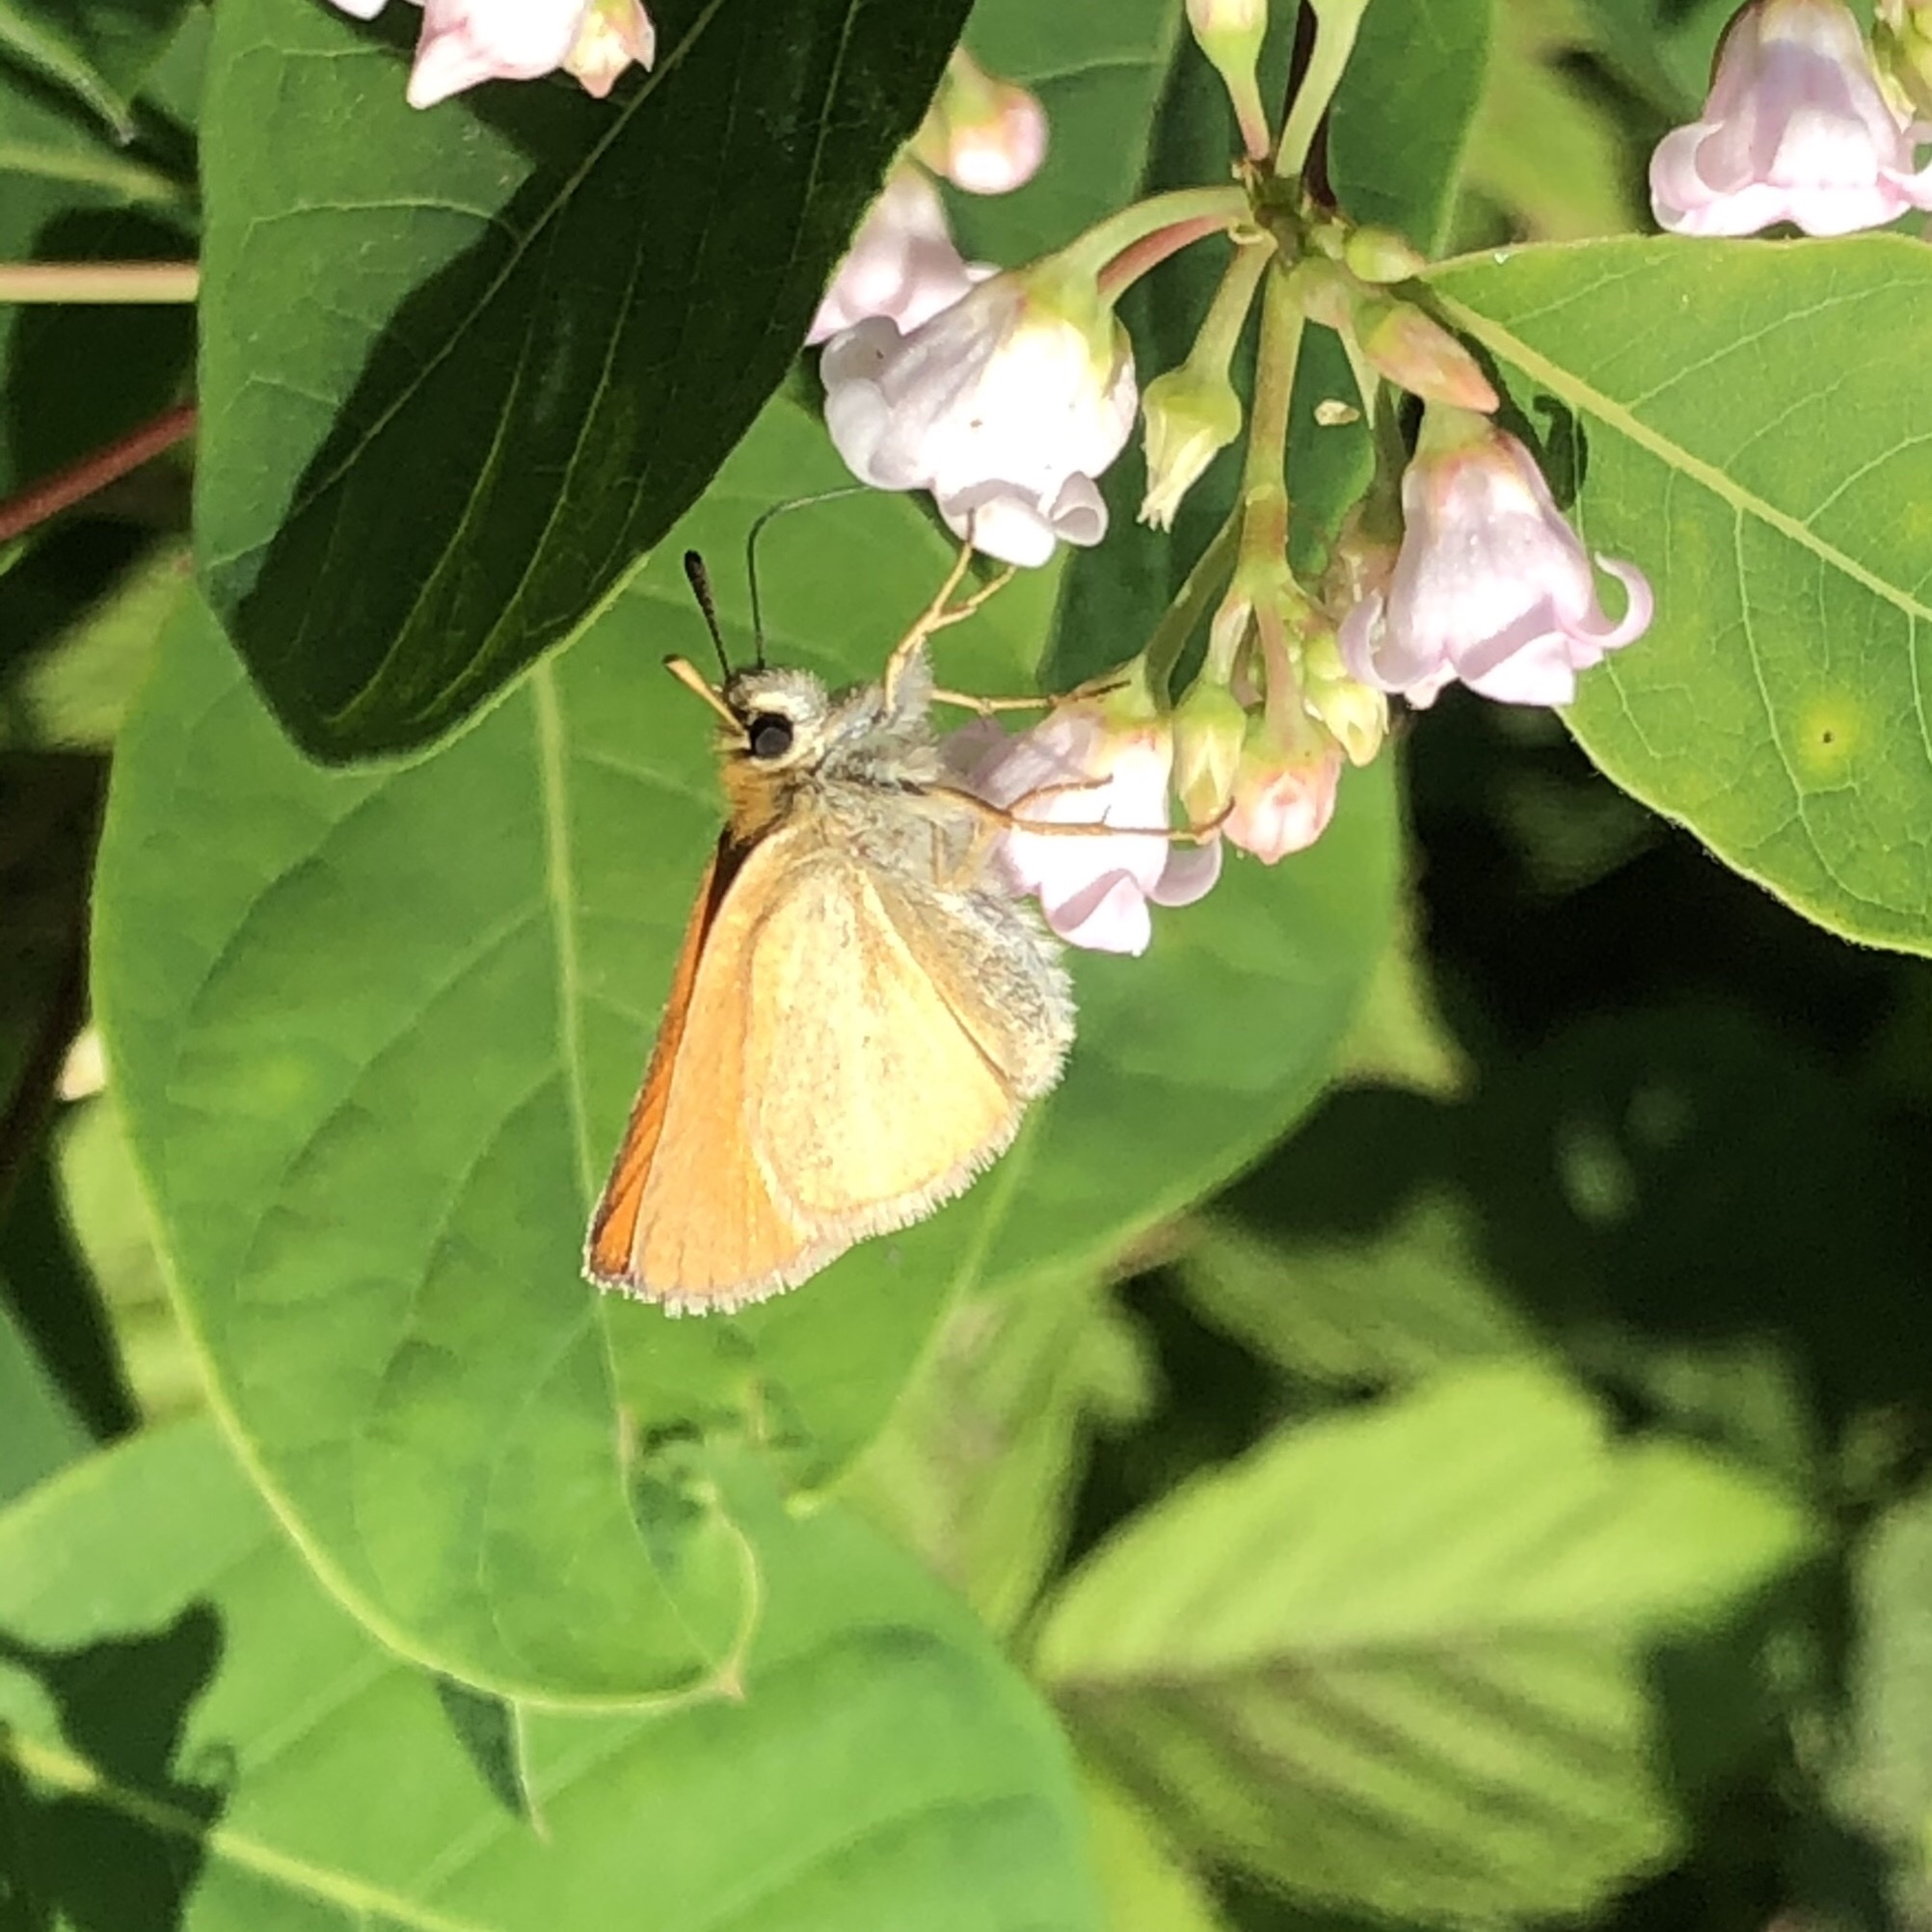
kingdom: Animalia
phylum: Arthropoda
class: Insecta
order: Lepidoptera
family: Hesperiidae
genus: Thymelicus
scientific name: Thymelicus lineola
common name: Essex skipper
